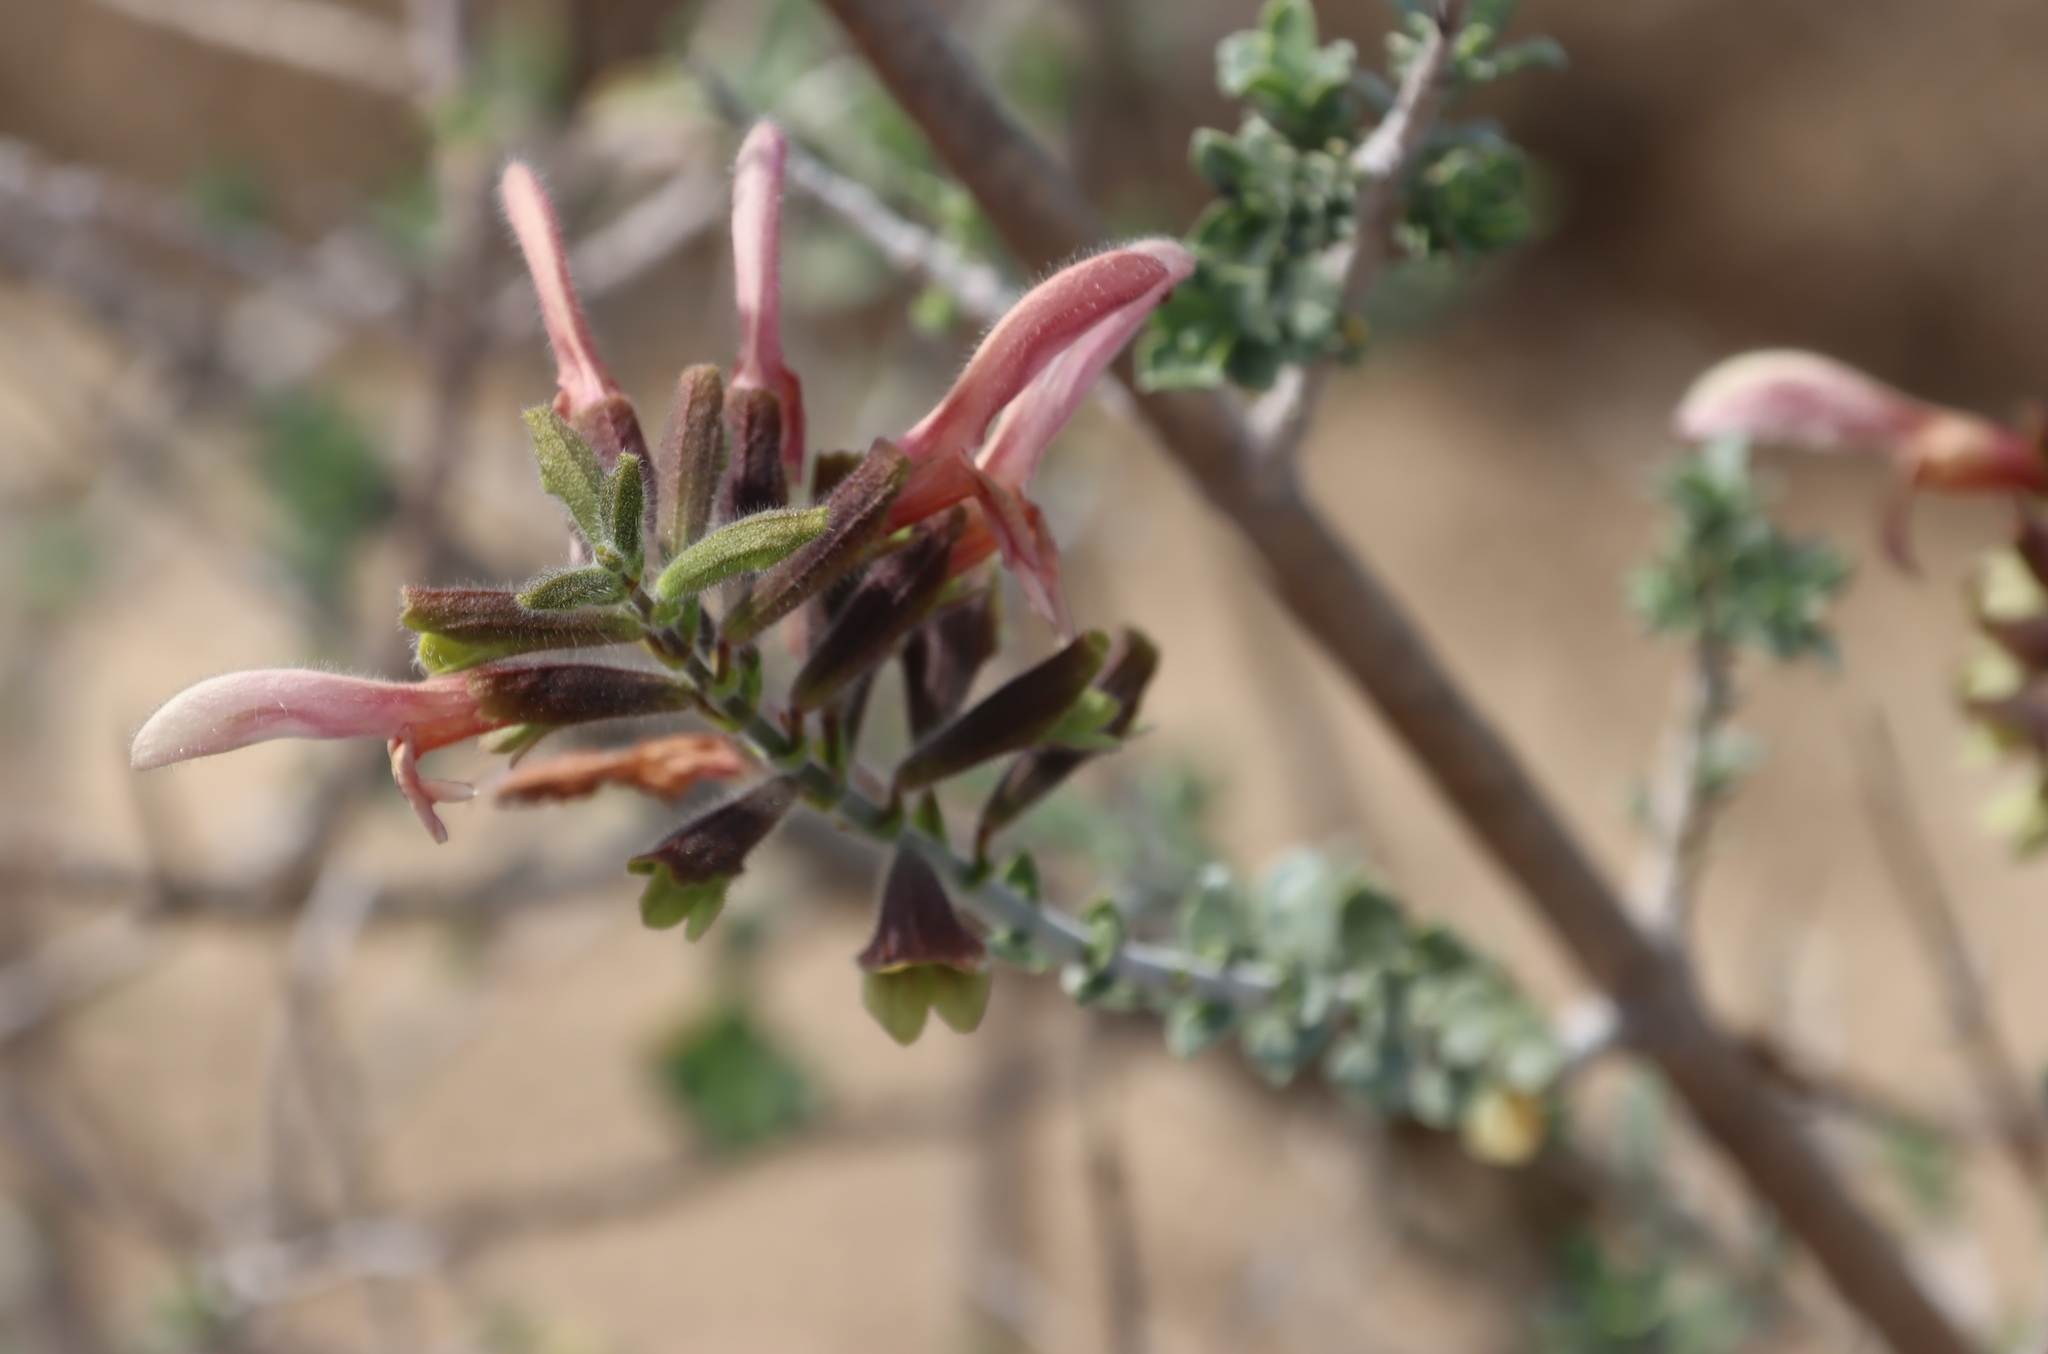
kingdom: Plantae
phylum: Tracheophyta
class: Magnoliopsida
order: Lamiales
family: Lamiaceae
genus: Salvia
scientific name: Salvia lanceolata
